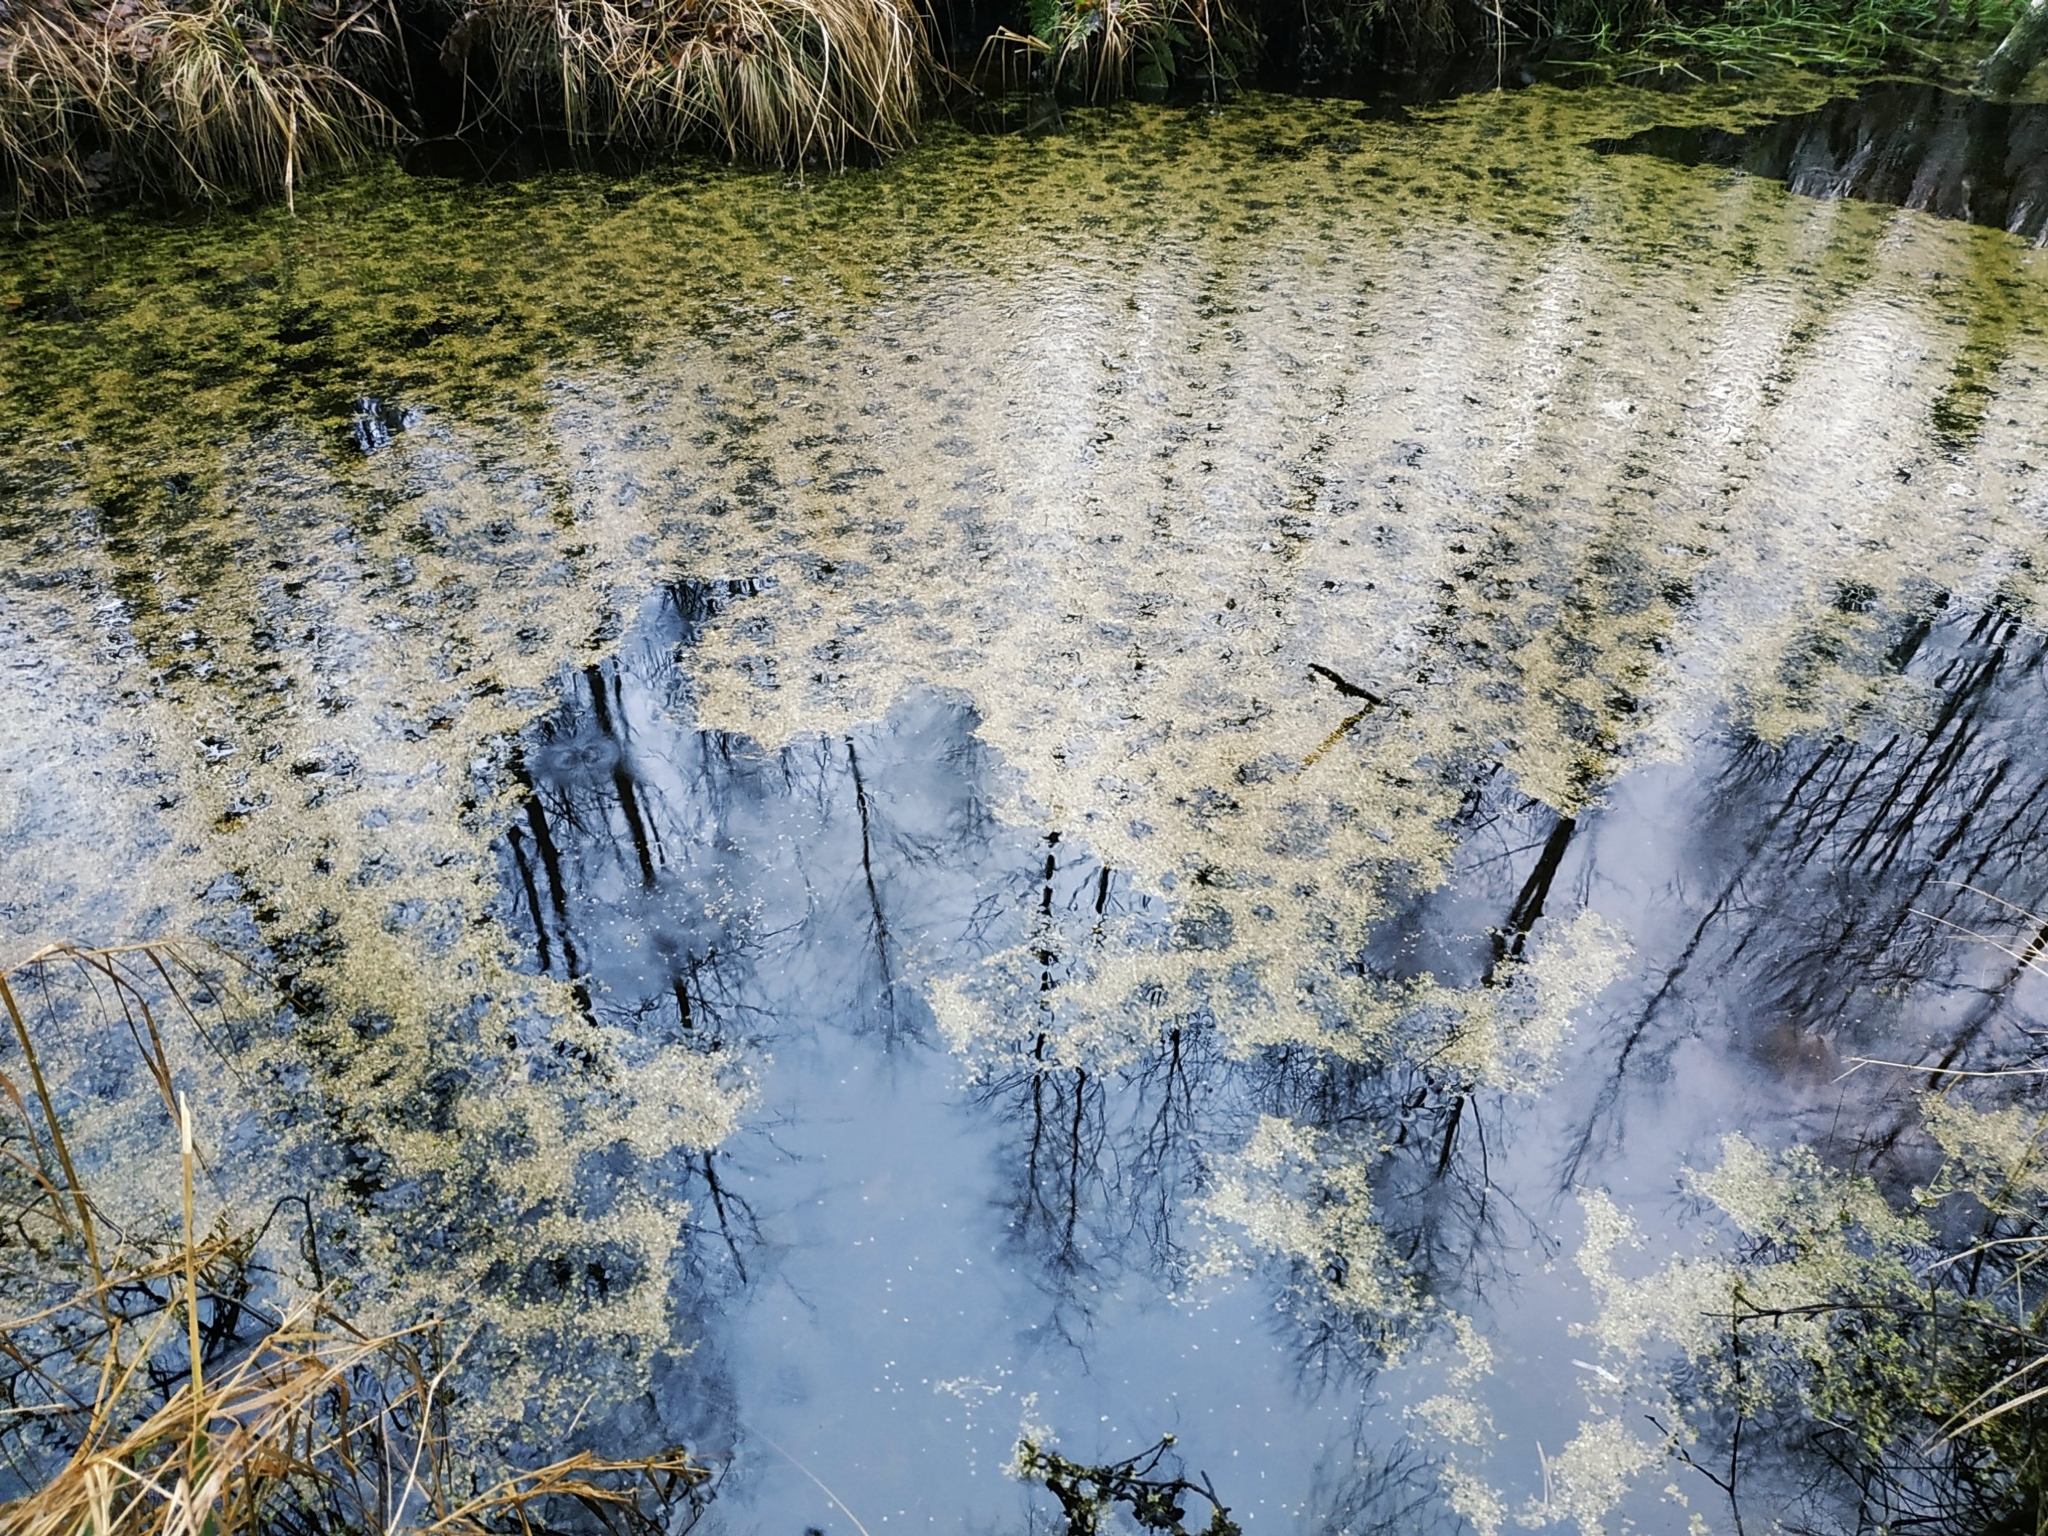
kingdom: Plantae
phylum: Tracheophyta
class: Liliopsida
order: Alismatales
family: Araceae
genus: Lemna
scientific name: Lemna
